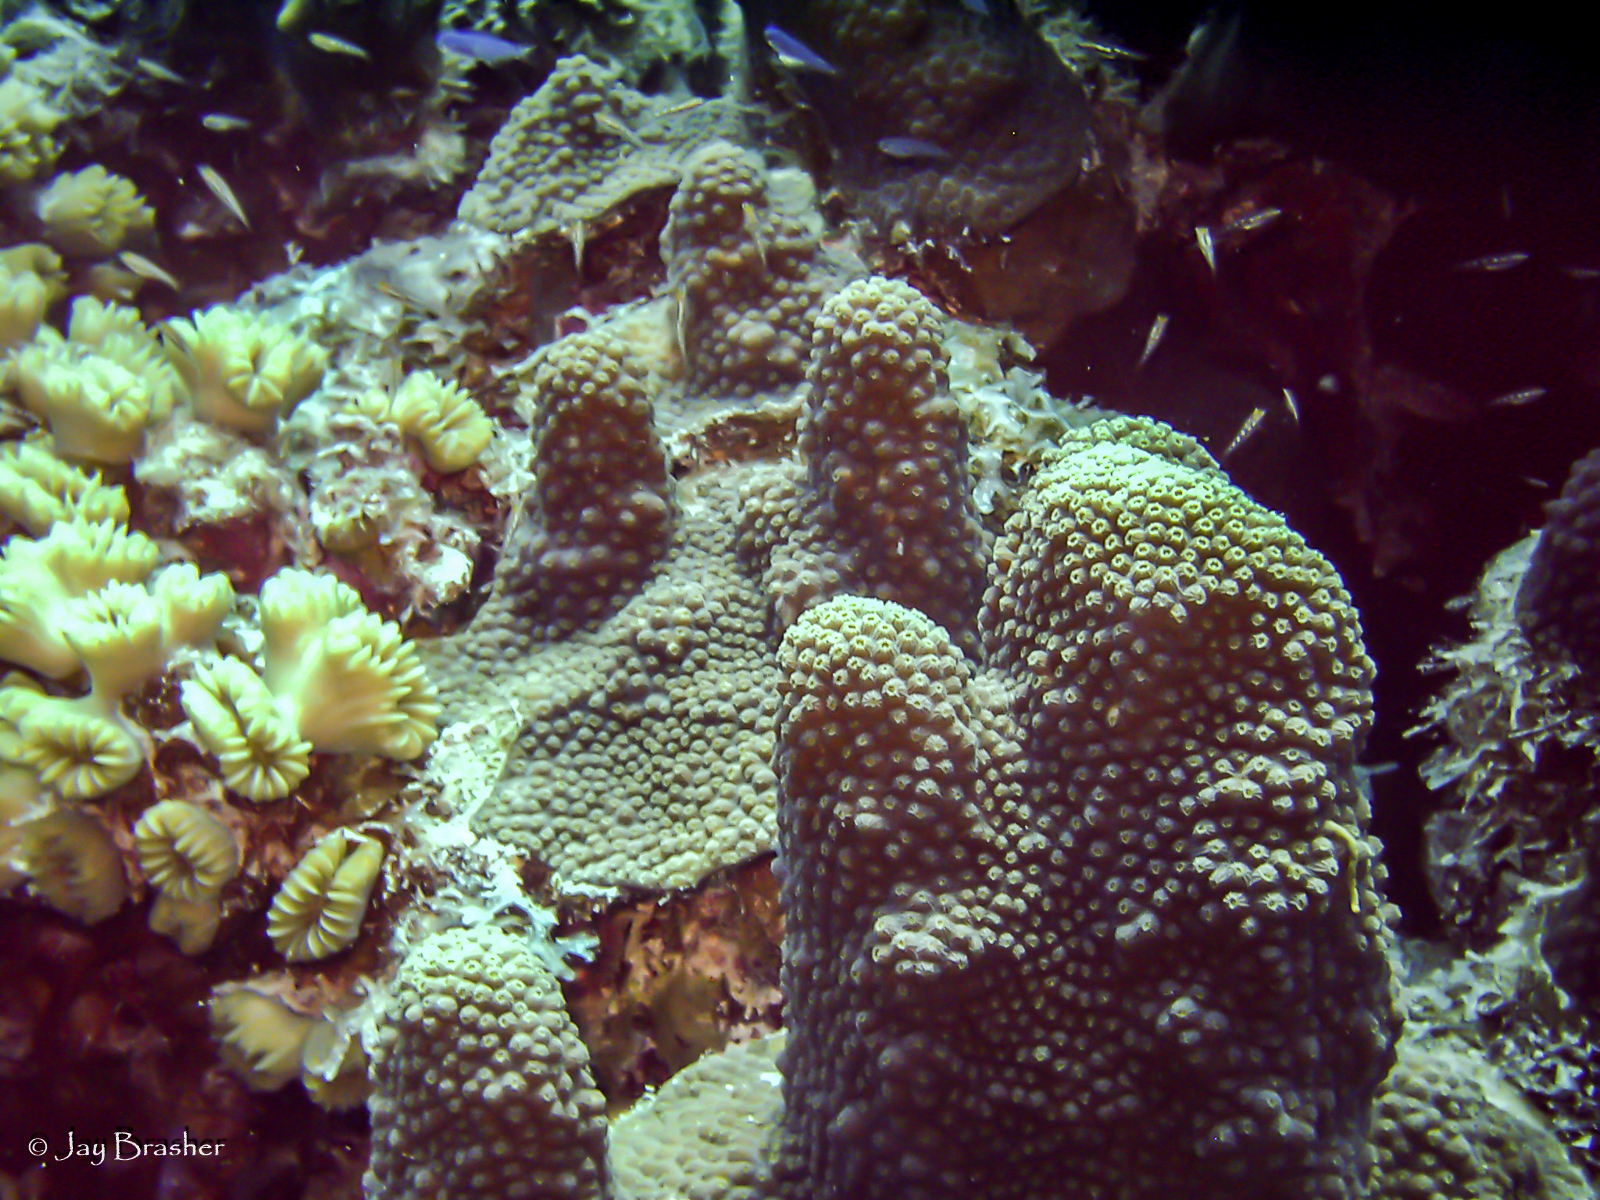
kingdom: Animalia
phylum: Cnidaria
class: Anthozoa
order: Scleractinia
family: Merulinidae
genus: Orbicella
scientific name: Orbicella faveolata
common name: Mountainous star coral
